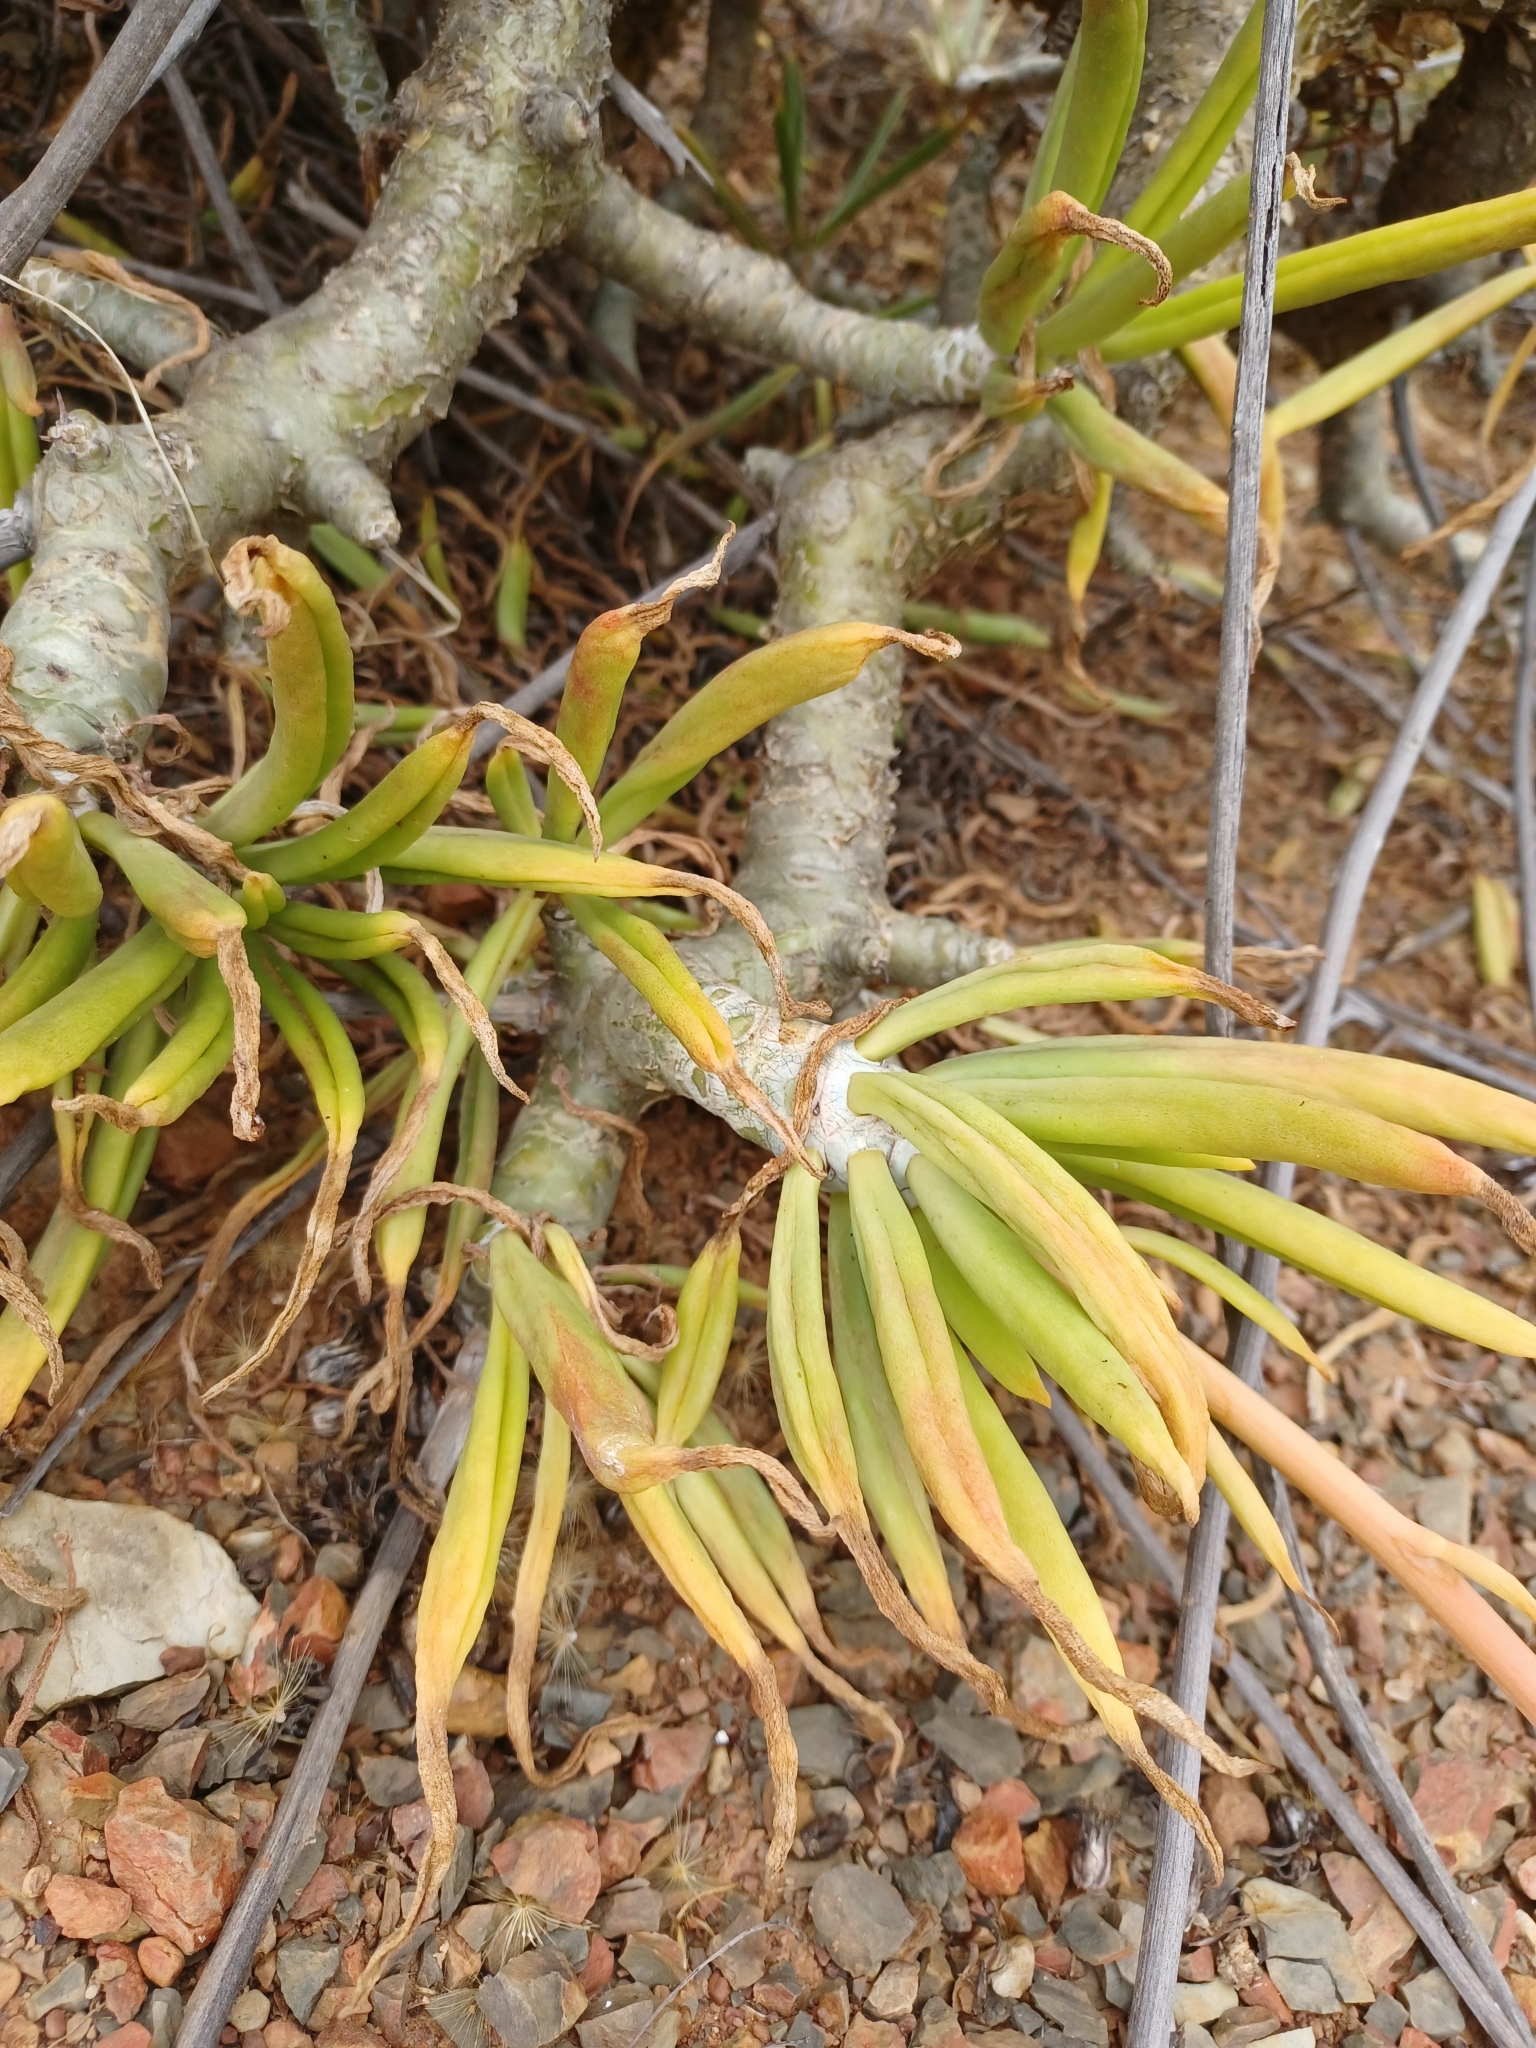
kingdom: Plantae
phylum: Tracheophyta
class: Magnoliopsida
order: Saxifragales
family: Crassulaceae
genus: Tylecodon
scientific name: Tylecodon
